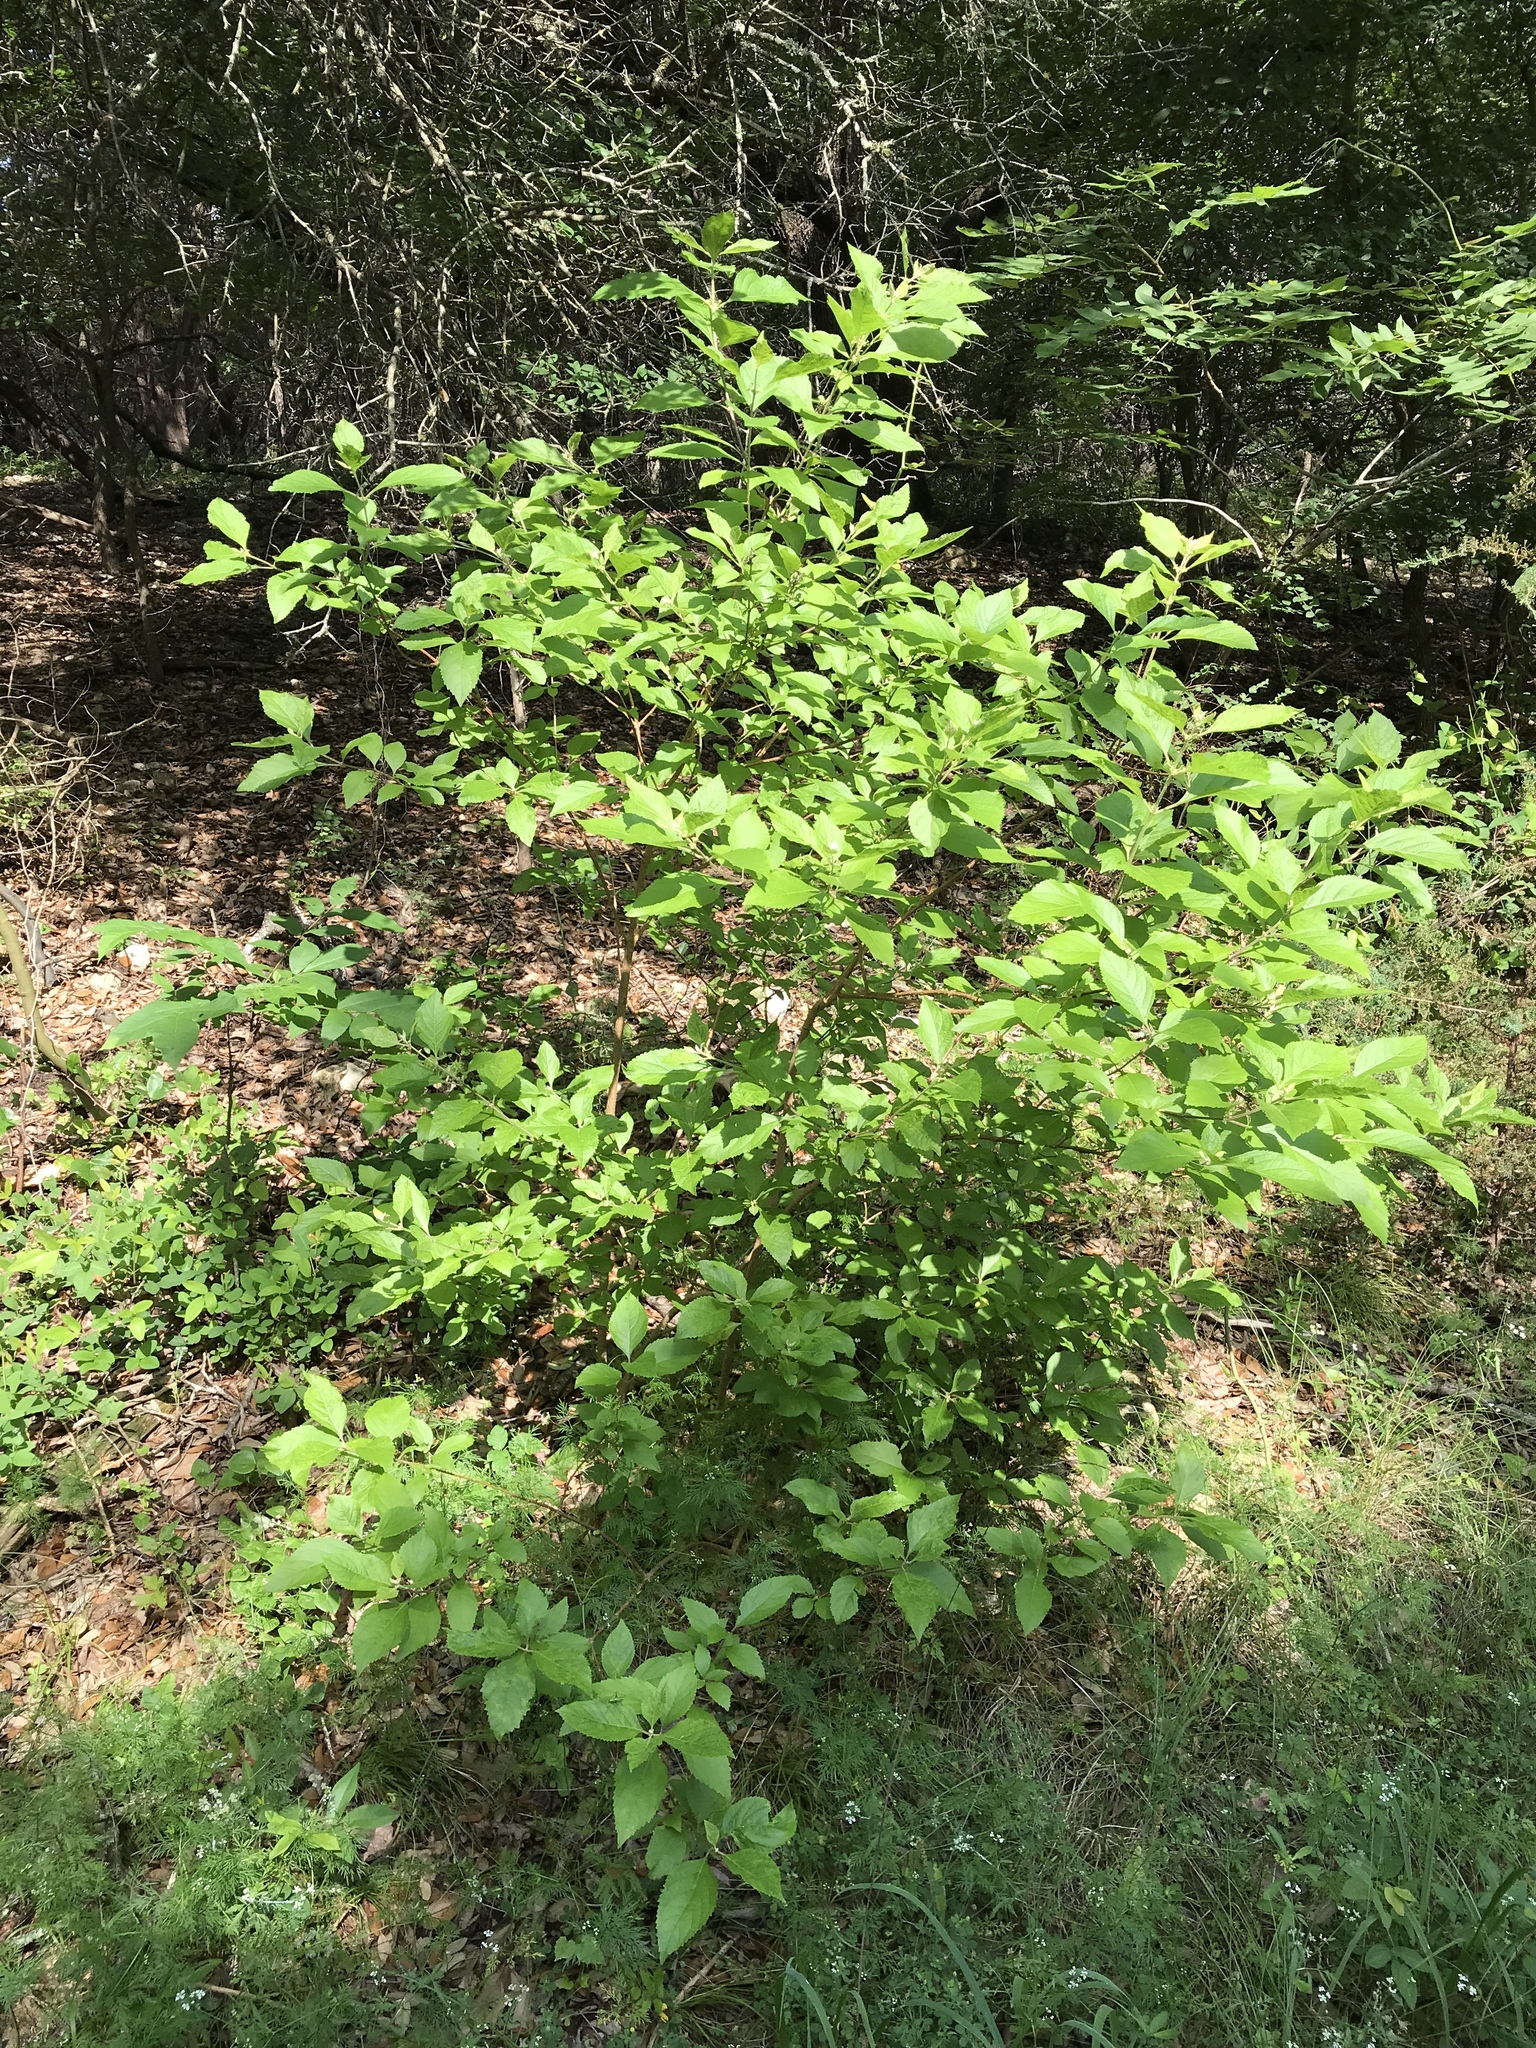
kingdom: Plantae
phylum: Tracheophyta
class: Magnoliopsida
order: Lamiales
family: Lamiaceae
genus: Callicarpa
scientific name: Callicarpa americana
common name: American beautyberry
